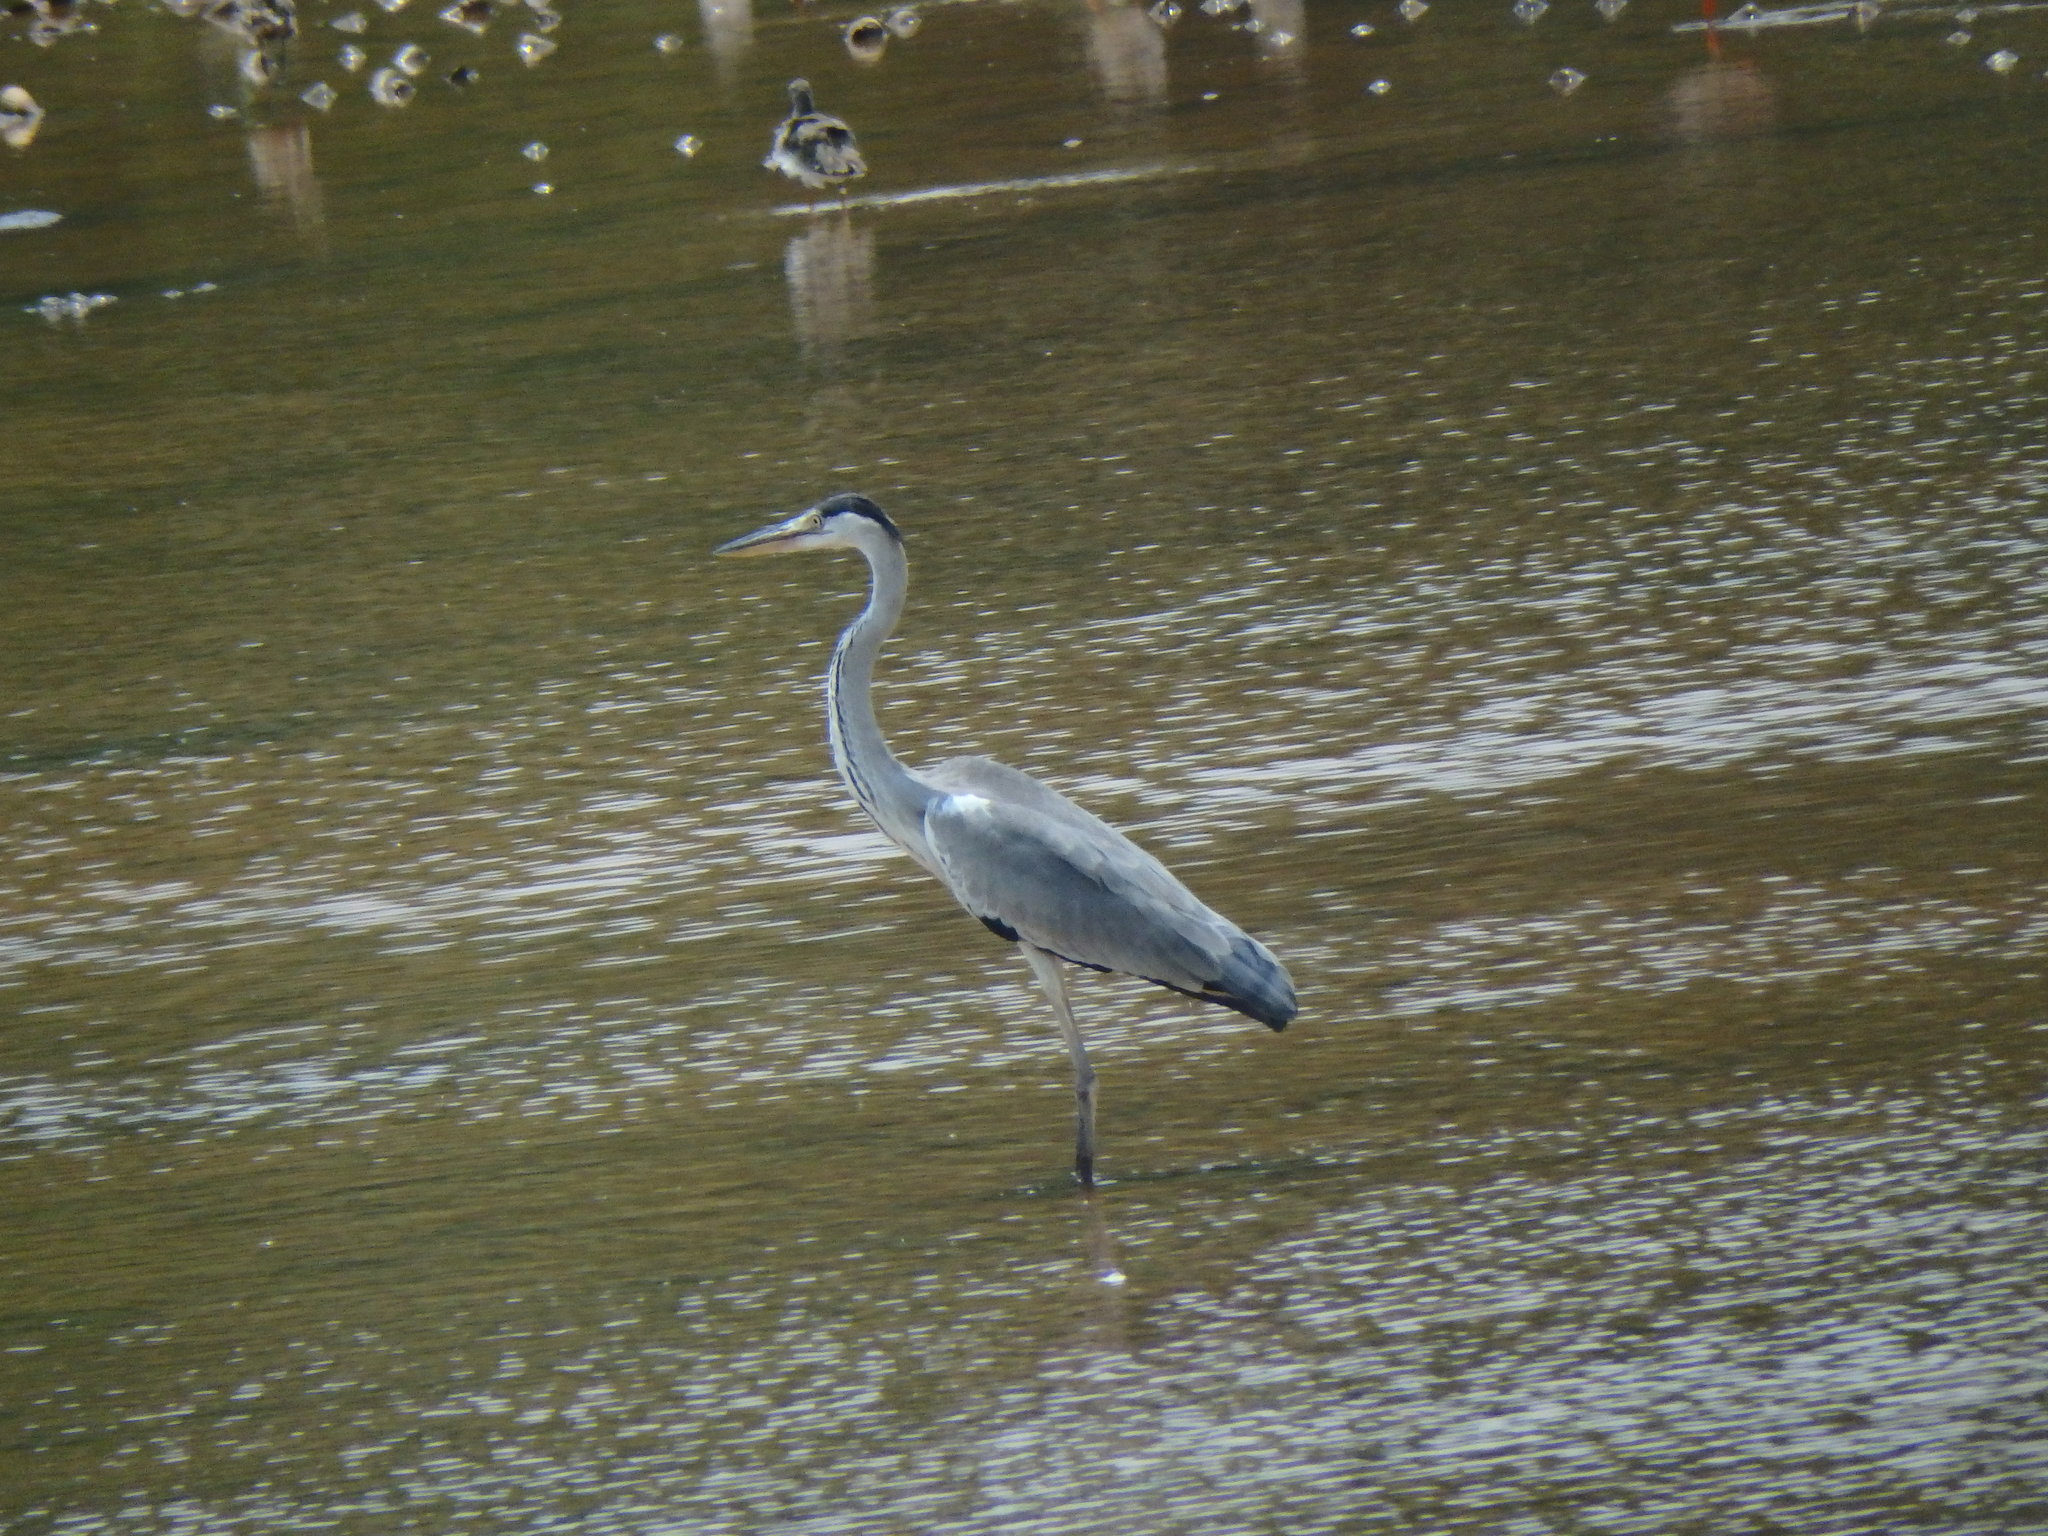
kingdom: Animalia
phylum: Chordata
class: Aves
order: Pelecaniformes
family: Ardeidae
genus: Ardea
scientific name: Ardea cinerea
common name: Grey heron
